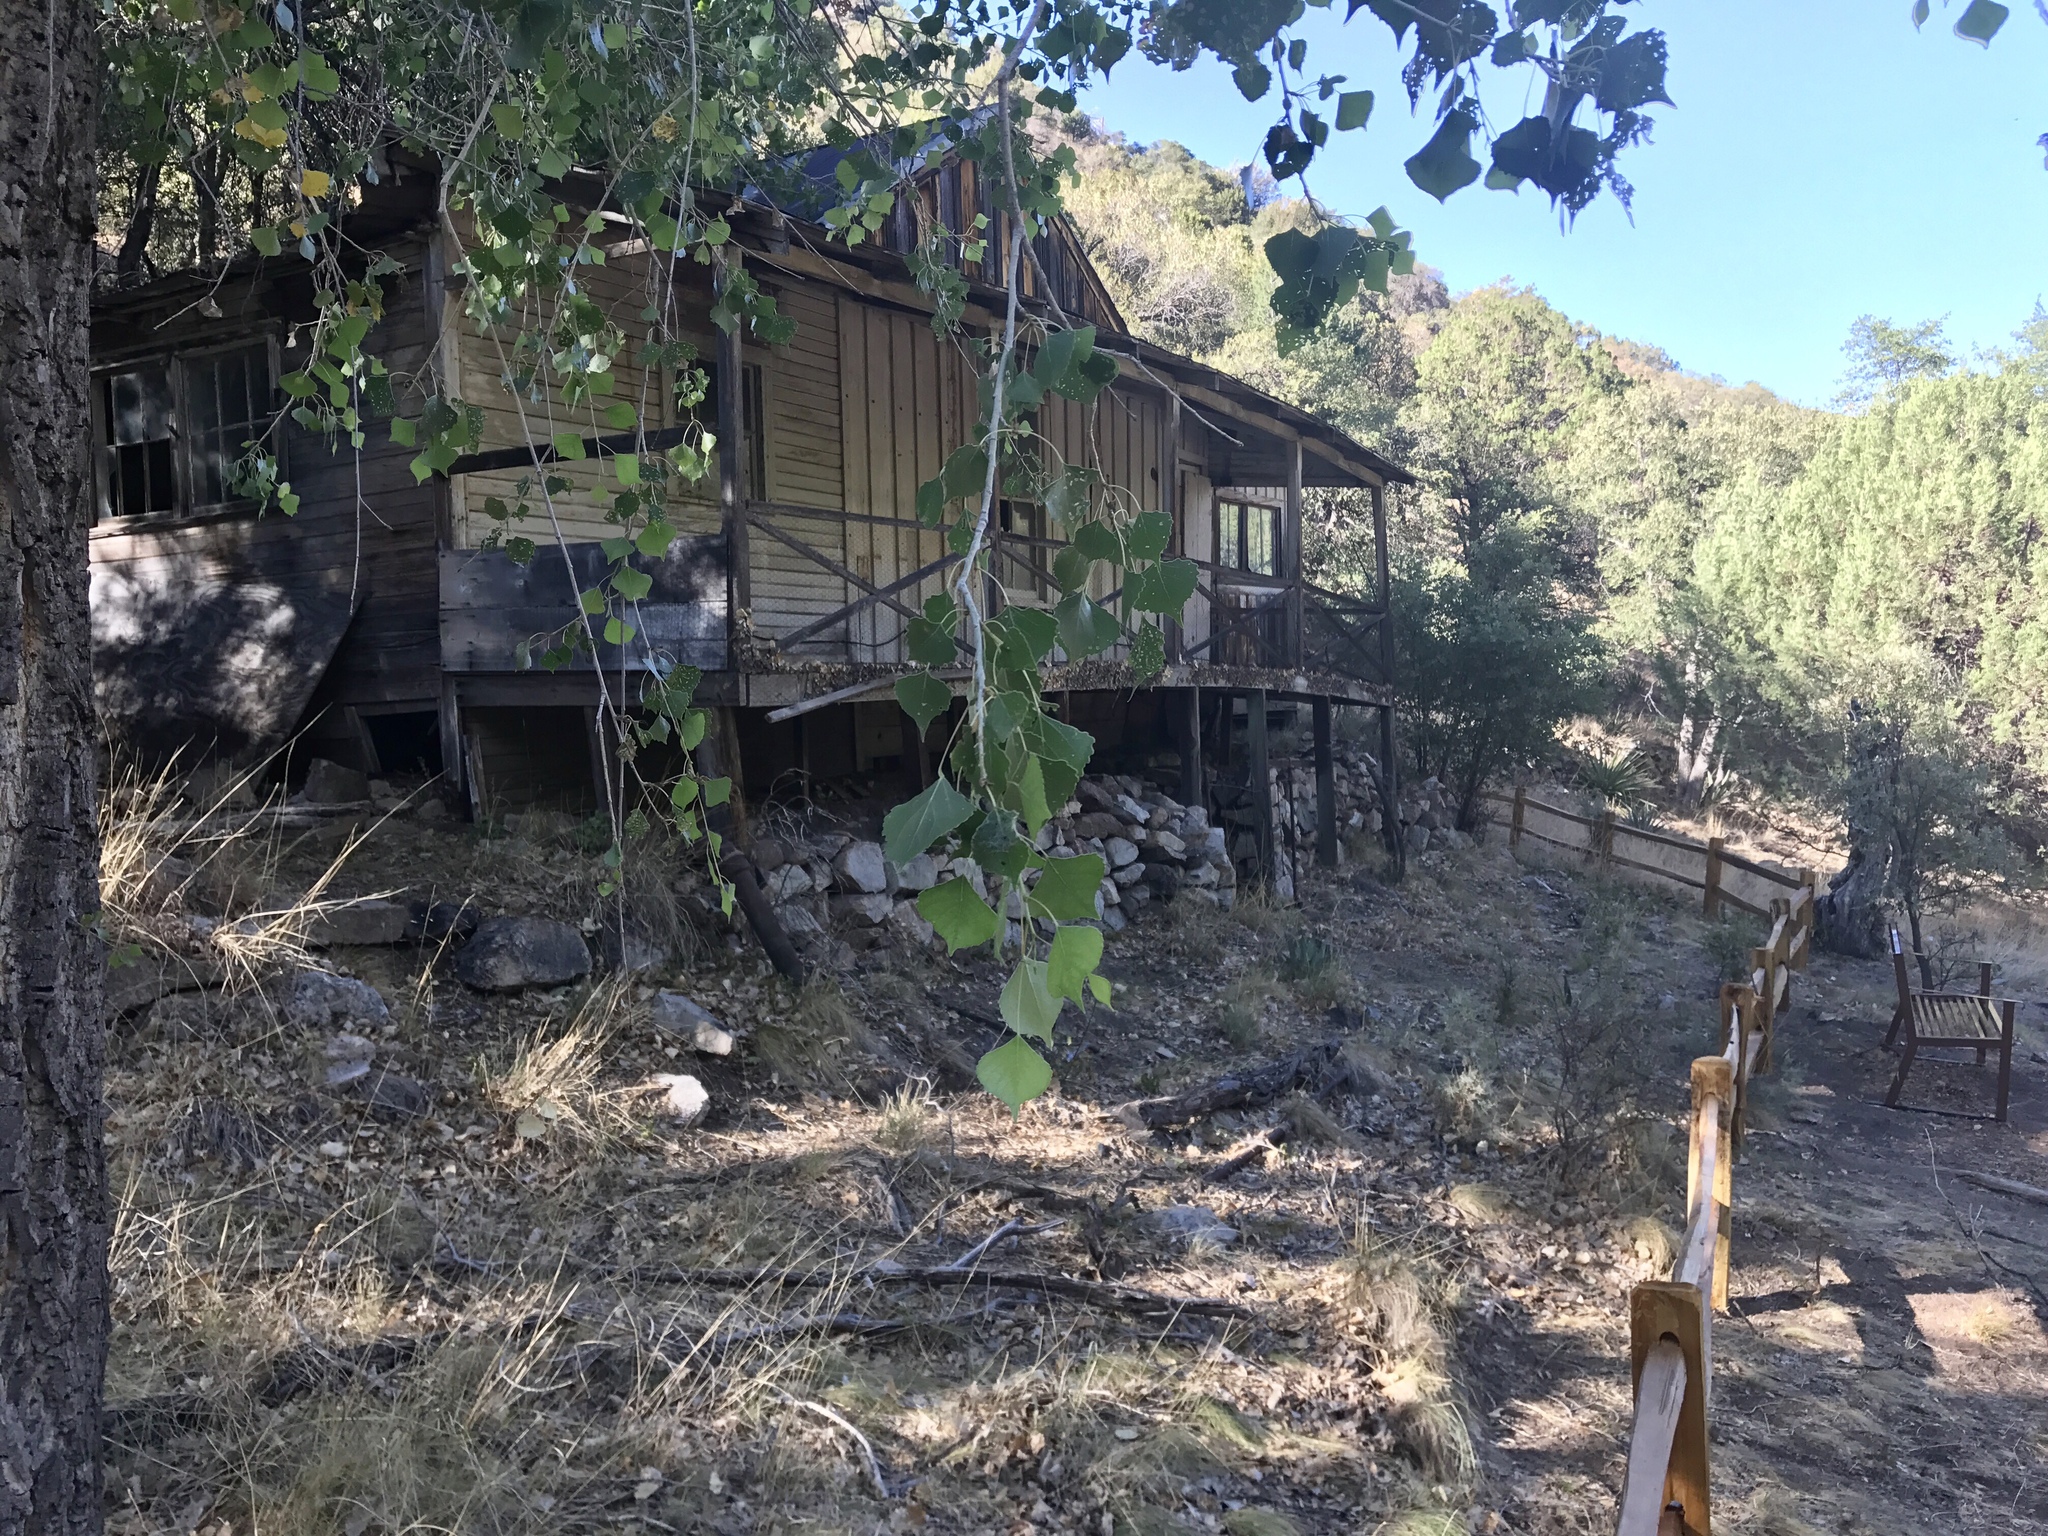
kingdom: Plantae
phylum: Tracheophyta
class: Magnoliopsida
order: Malpighiales
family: Salicaceae
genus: Populus
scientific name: Populus fremontii
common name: Fremont's cottonwood
